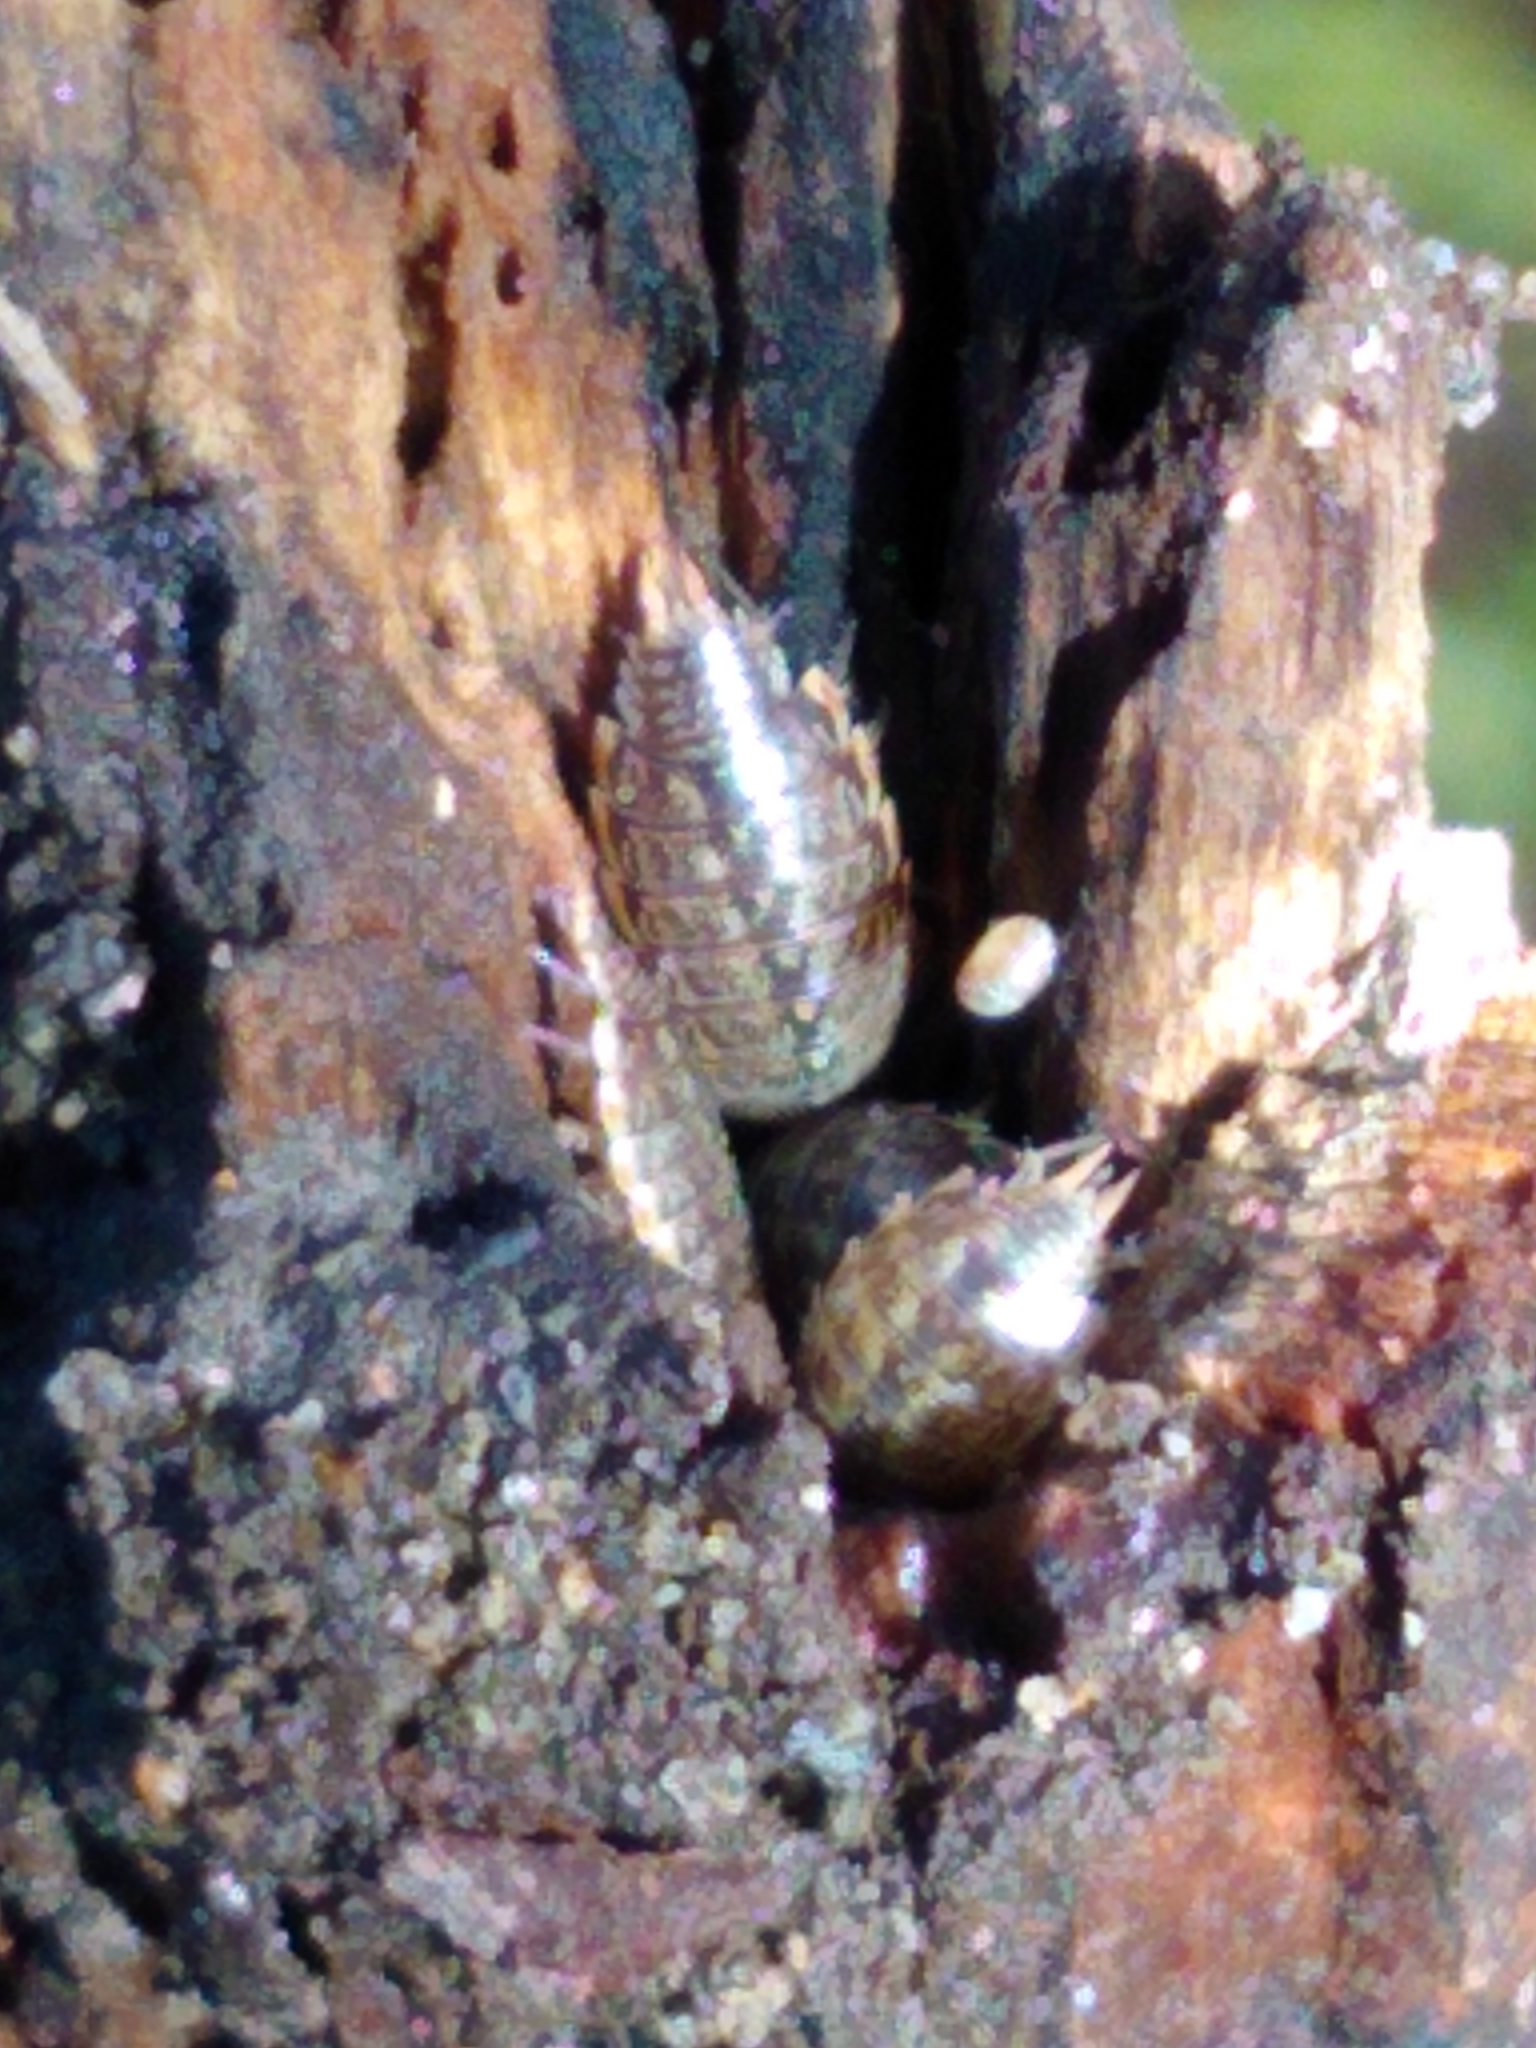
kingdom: Animalia
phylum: Arthropoda
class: Malacostraca
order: Isopoda
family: Philosciidae
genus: Philoscia
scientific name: Philoscia muscorum
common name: Common striped woodlouse
